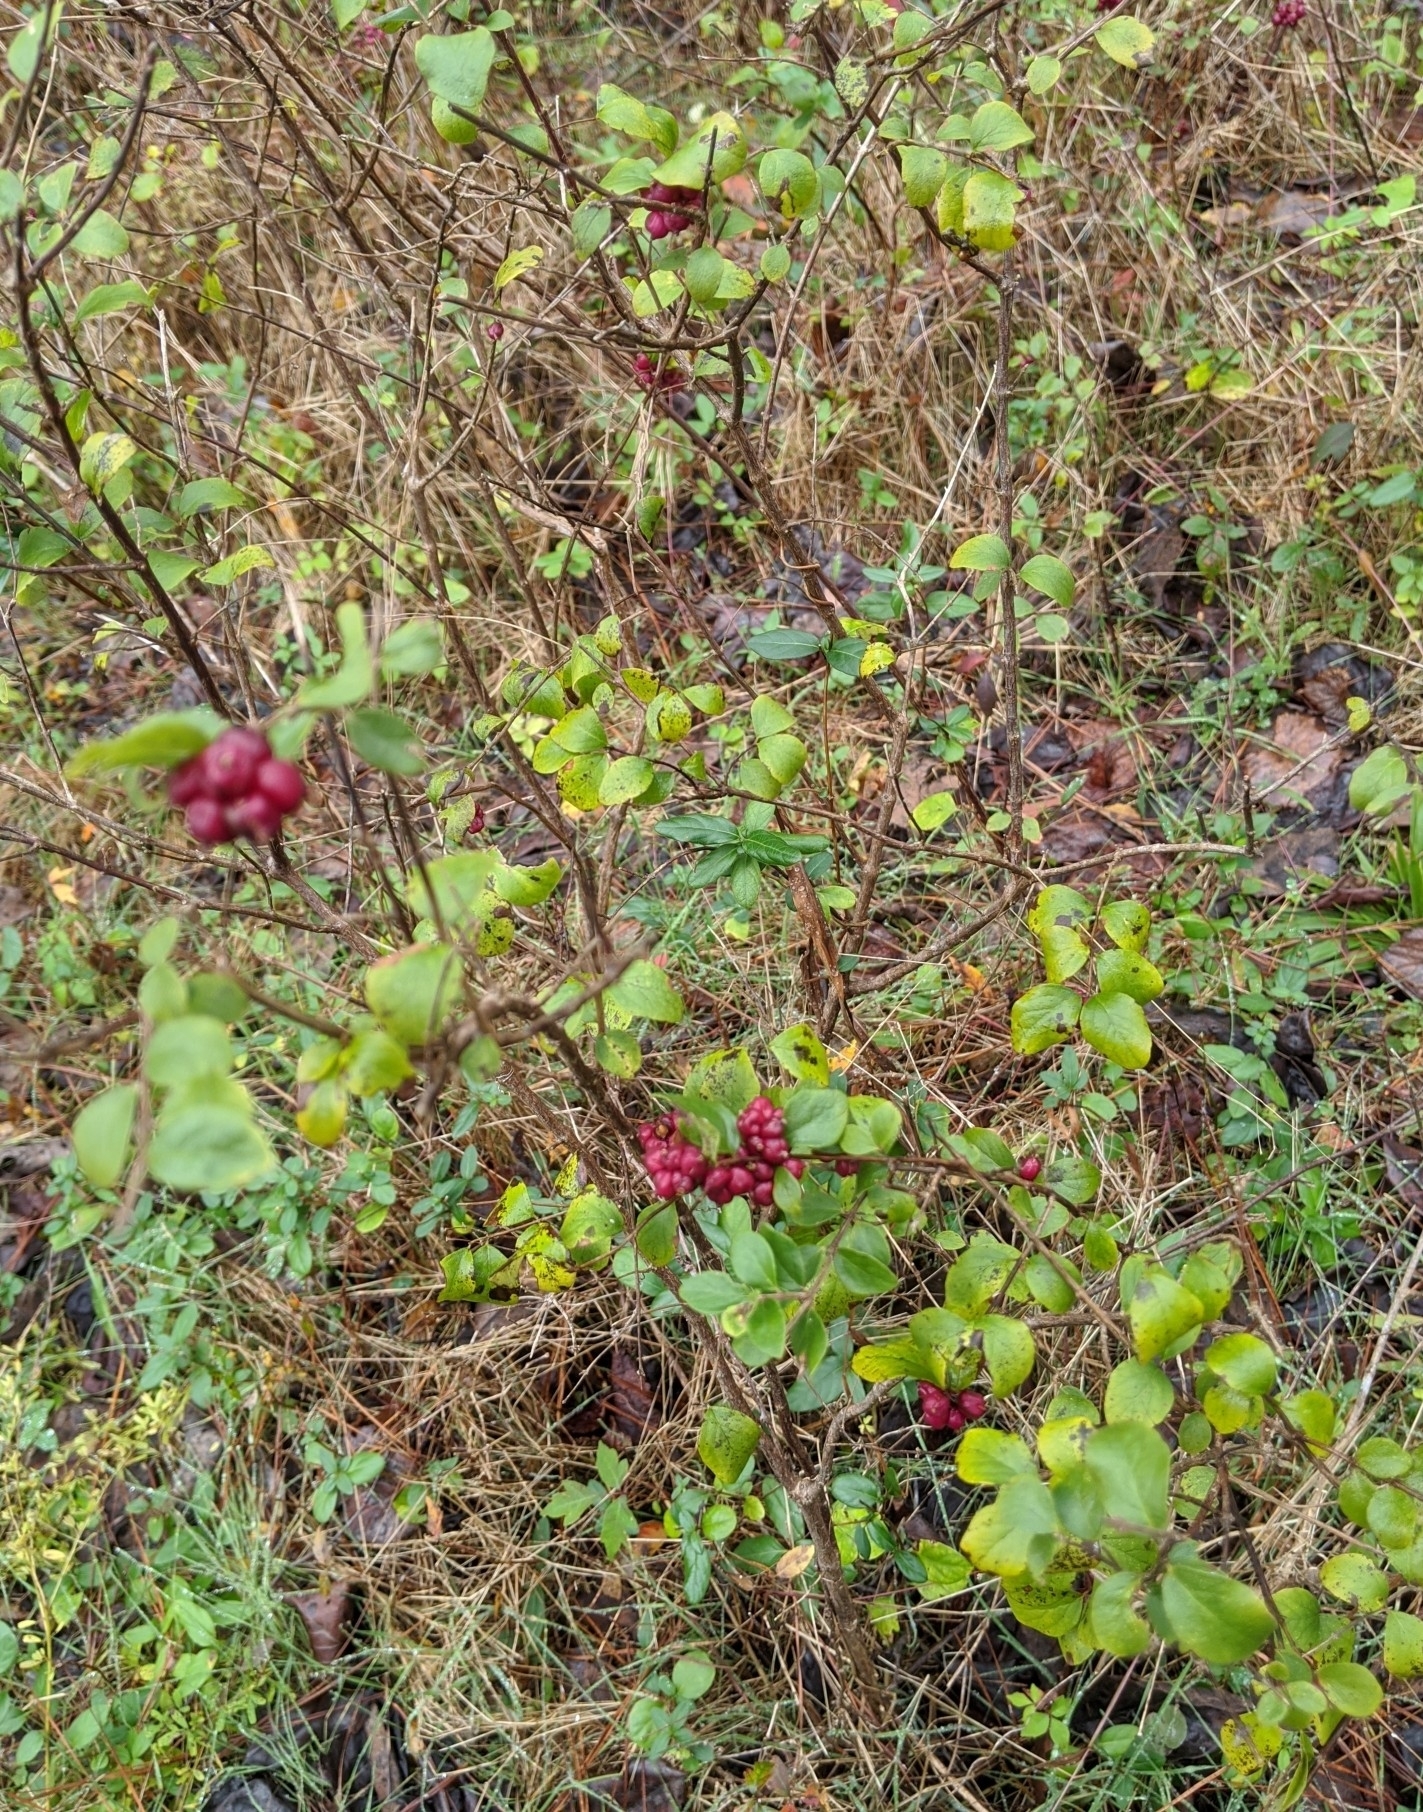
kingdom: Plantae
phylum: Tracheophyta
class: Magnoliopsida
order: Dipsacales
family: Caprifoliaceae
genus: Symphoricarpos
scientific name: Symphoricarpos orbiculatus
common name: Coralberry
